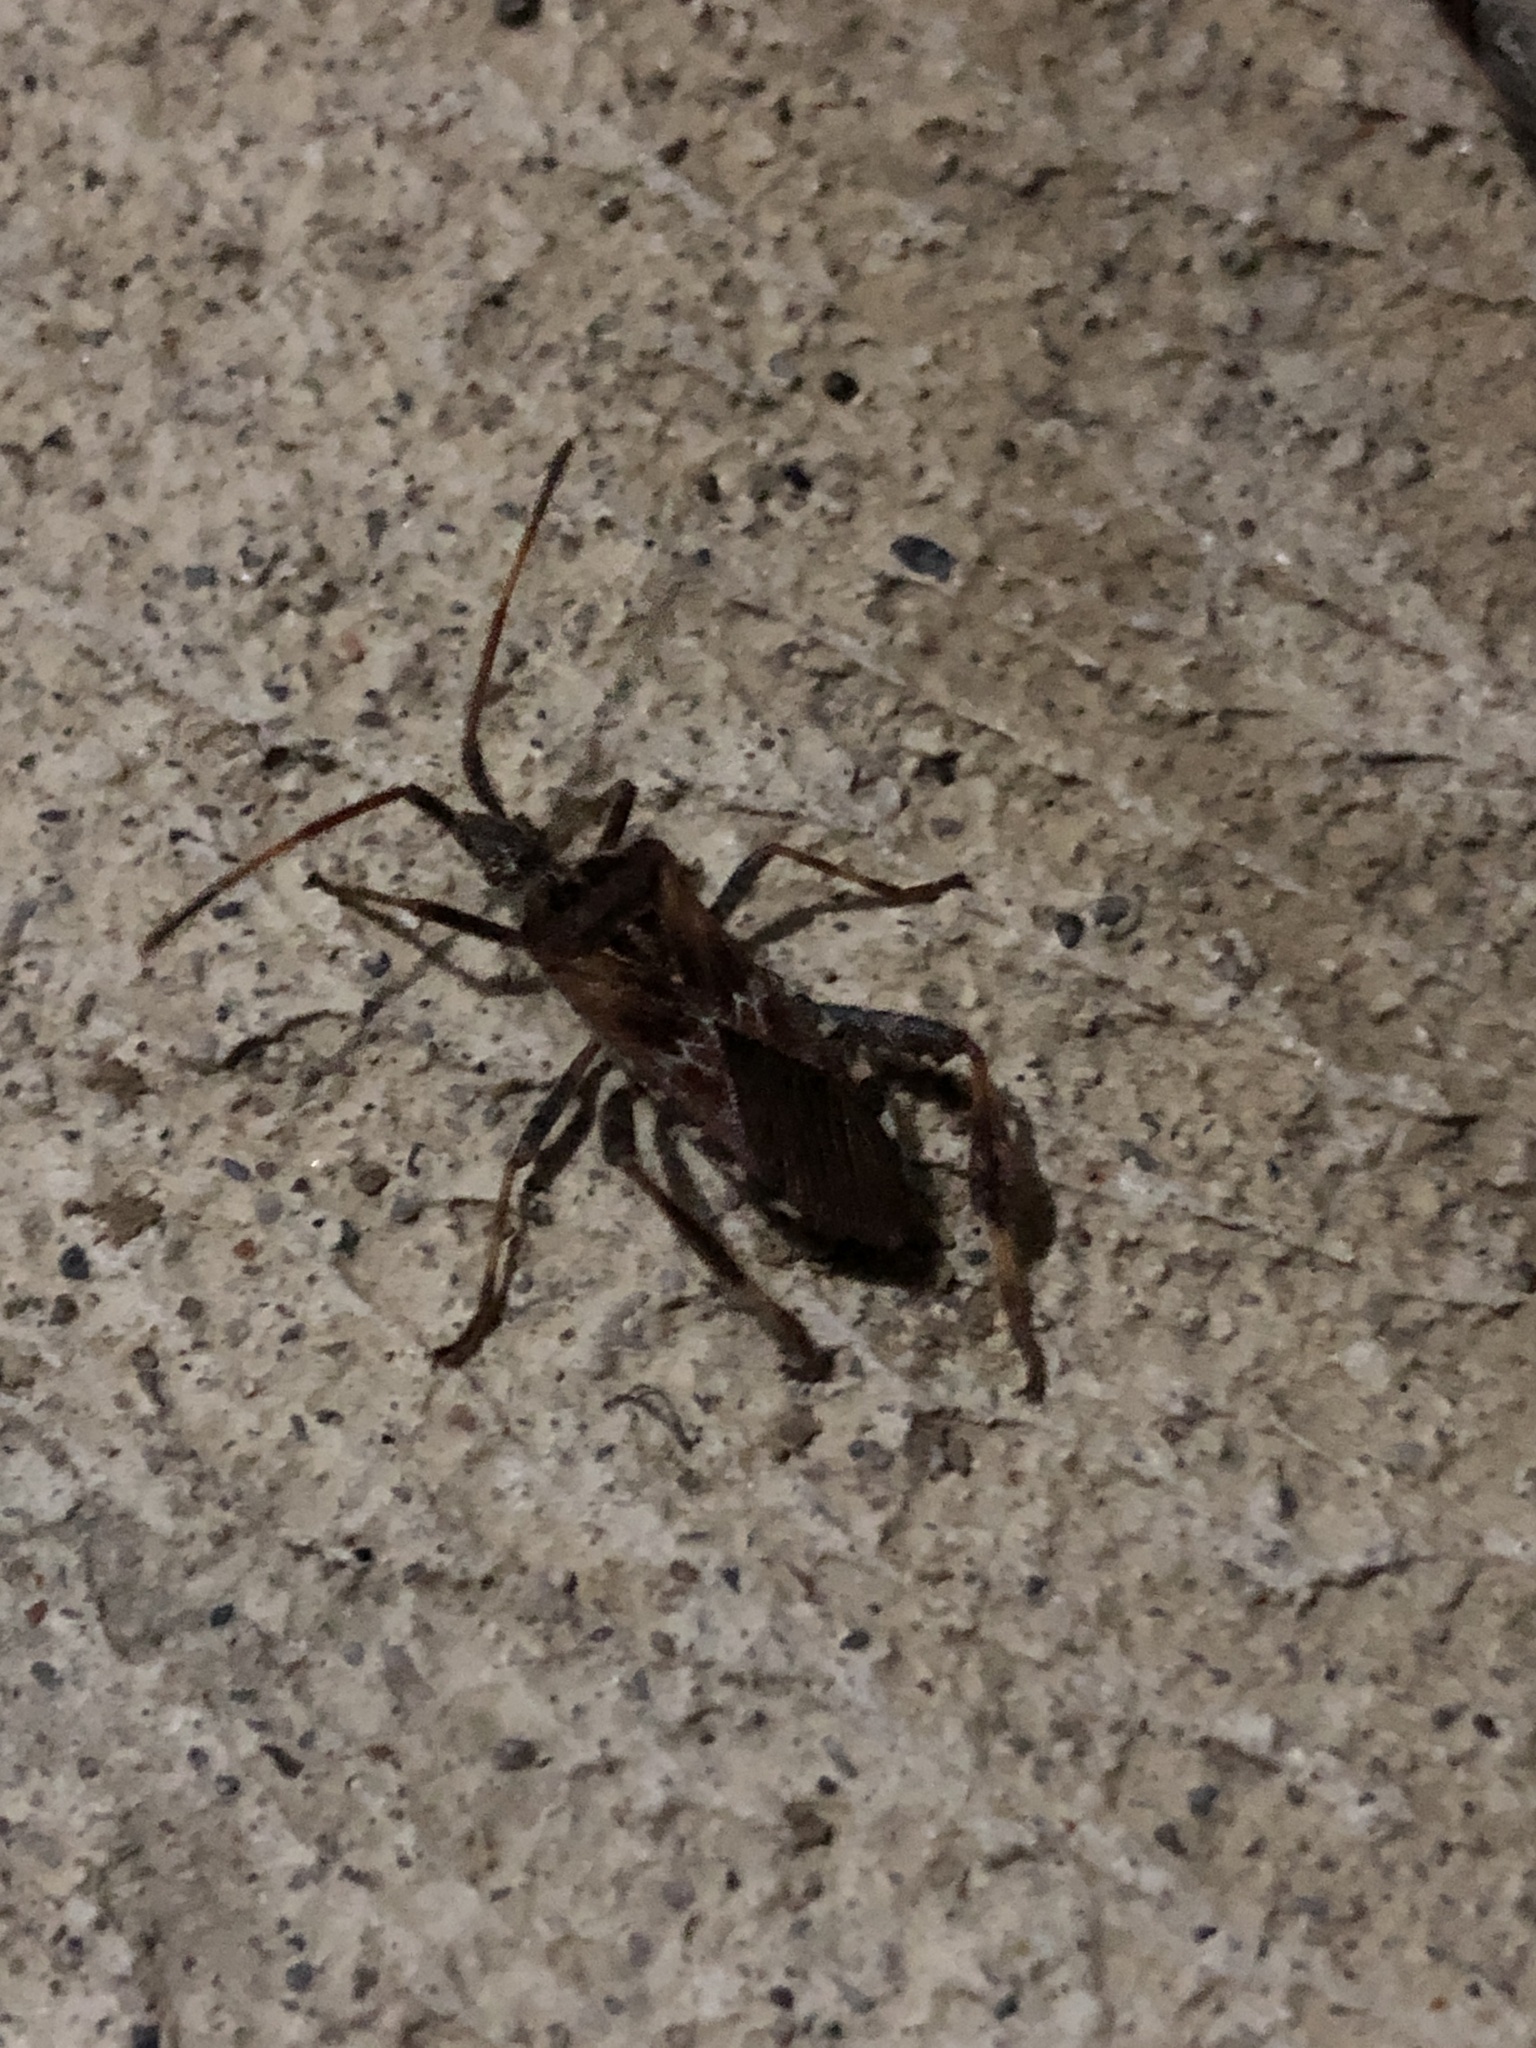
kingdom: Animalia
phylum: Arthropoda
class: Insecta
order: Hemiptera
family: Coreidae
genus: Leptoglossus
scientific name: Leptoglossus occidentalis
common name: Western conifer-seed bug
